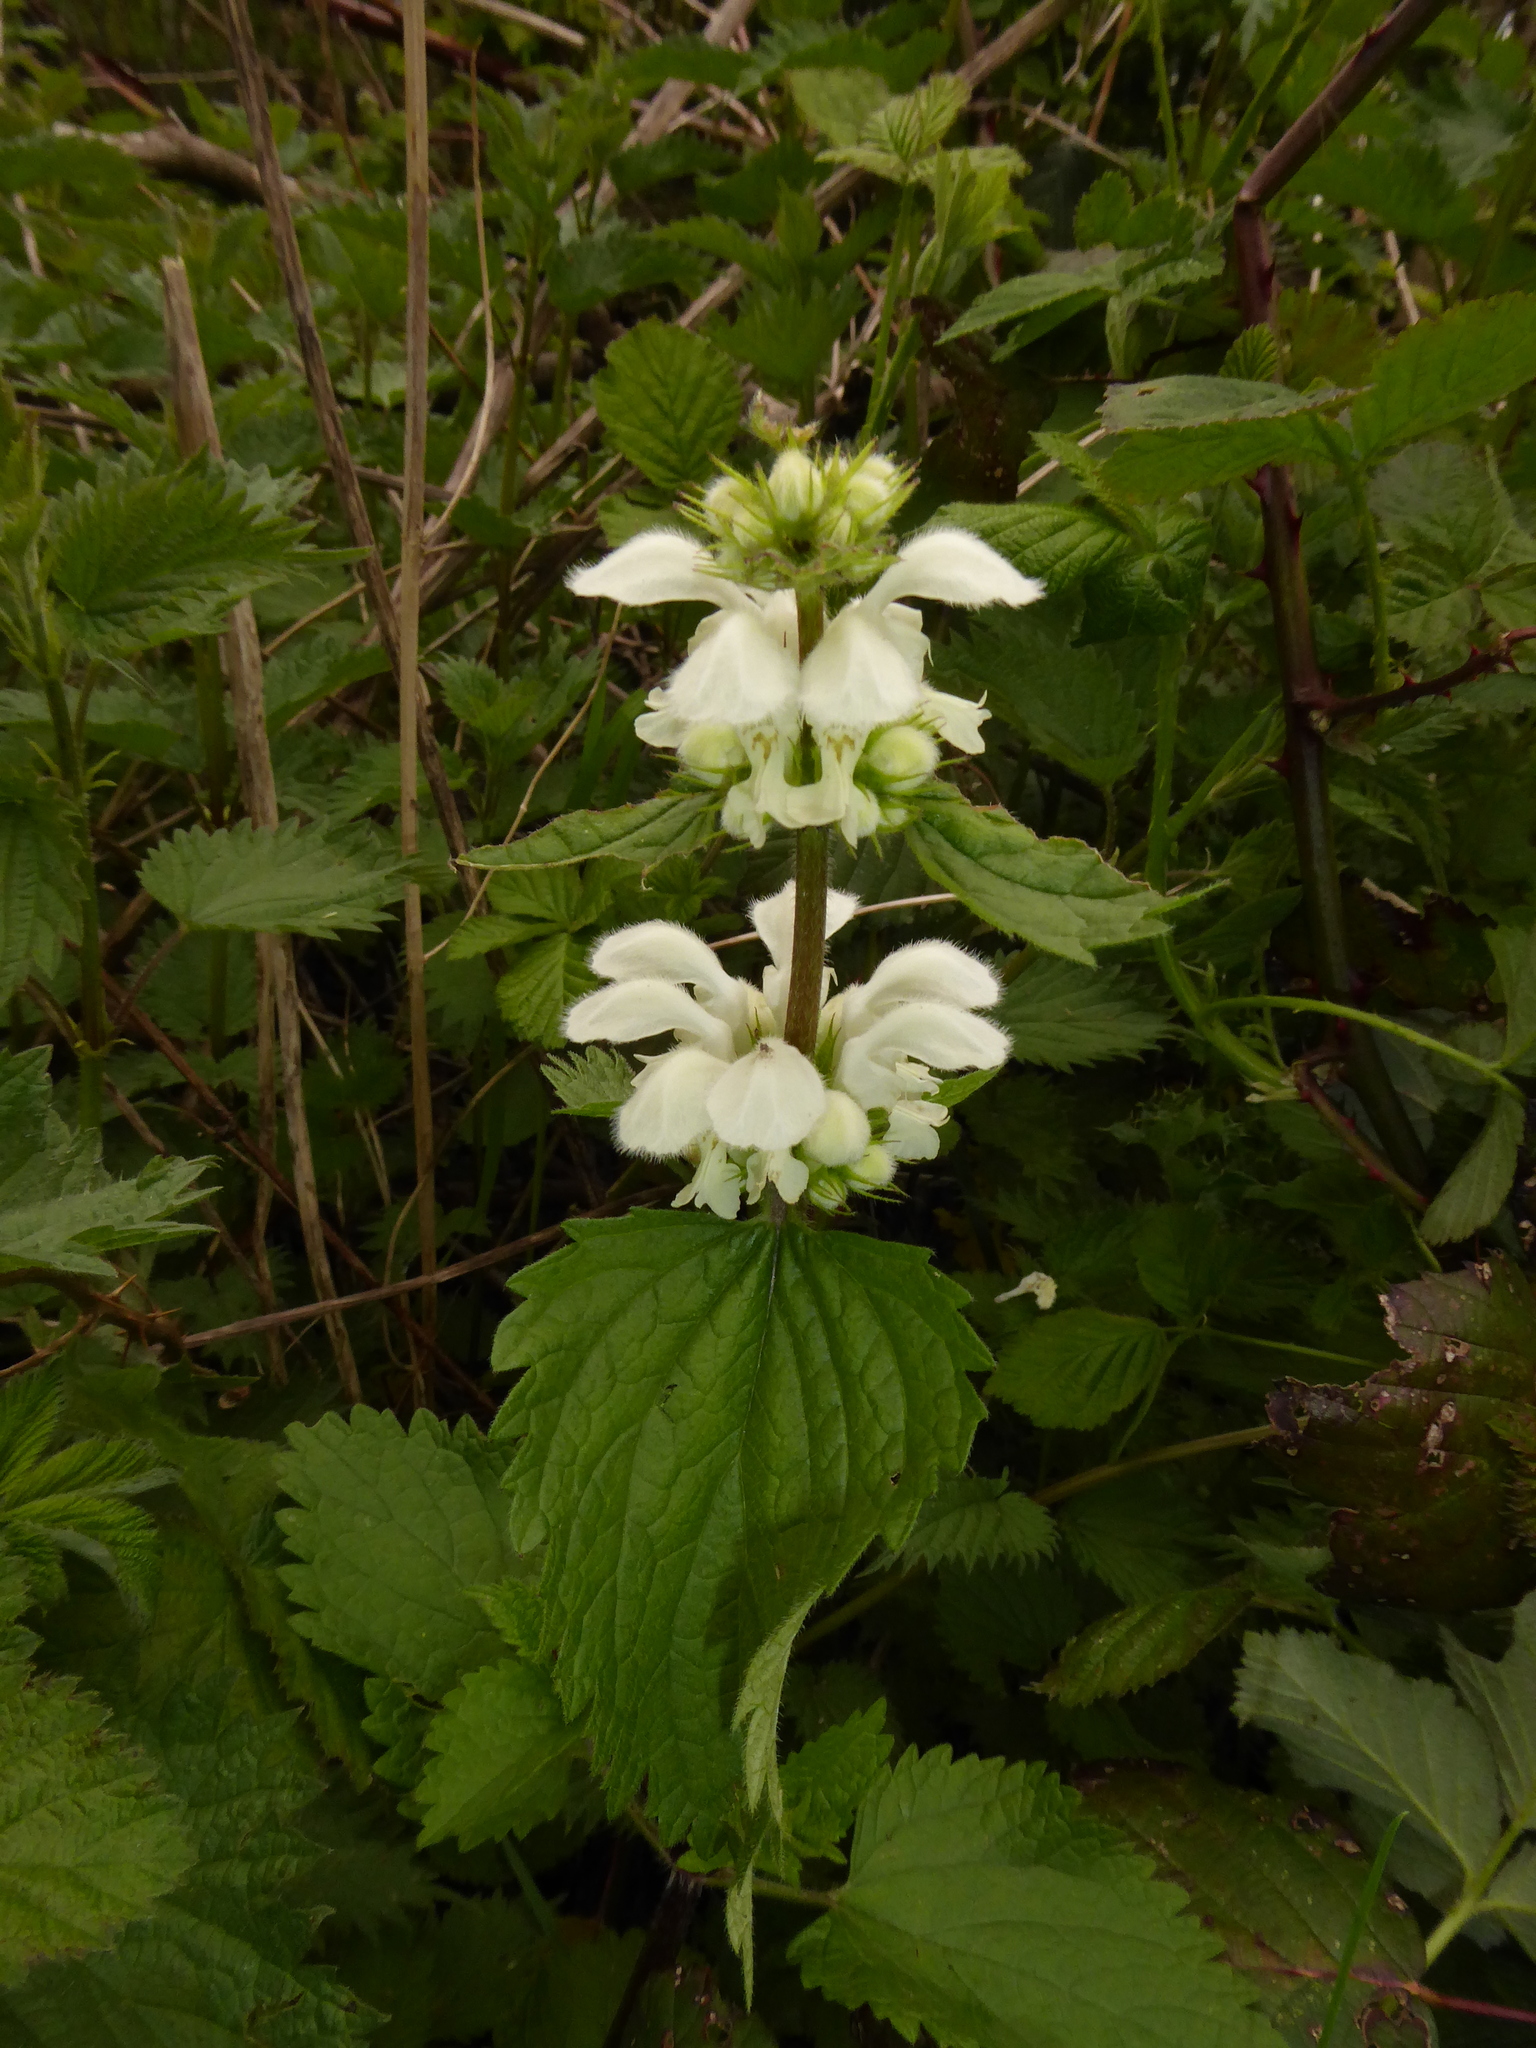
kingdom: Plantae
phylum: Tracheophyta
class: Magnoliopsida
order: Lamiales
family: Lamiaceae
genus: Lamium
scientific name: Lamium album
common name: White dead-nettle
